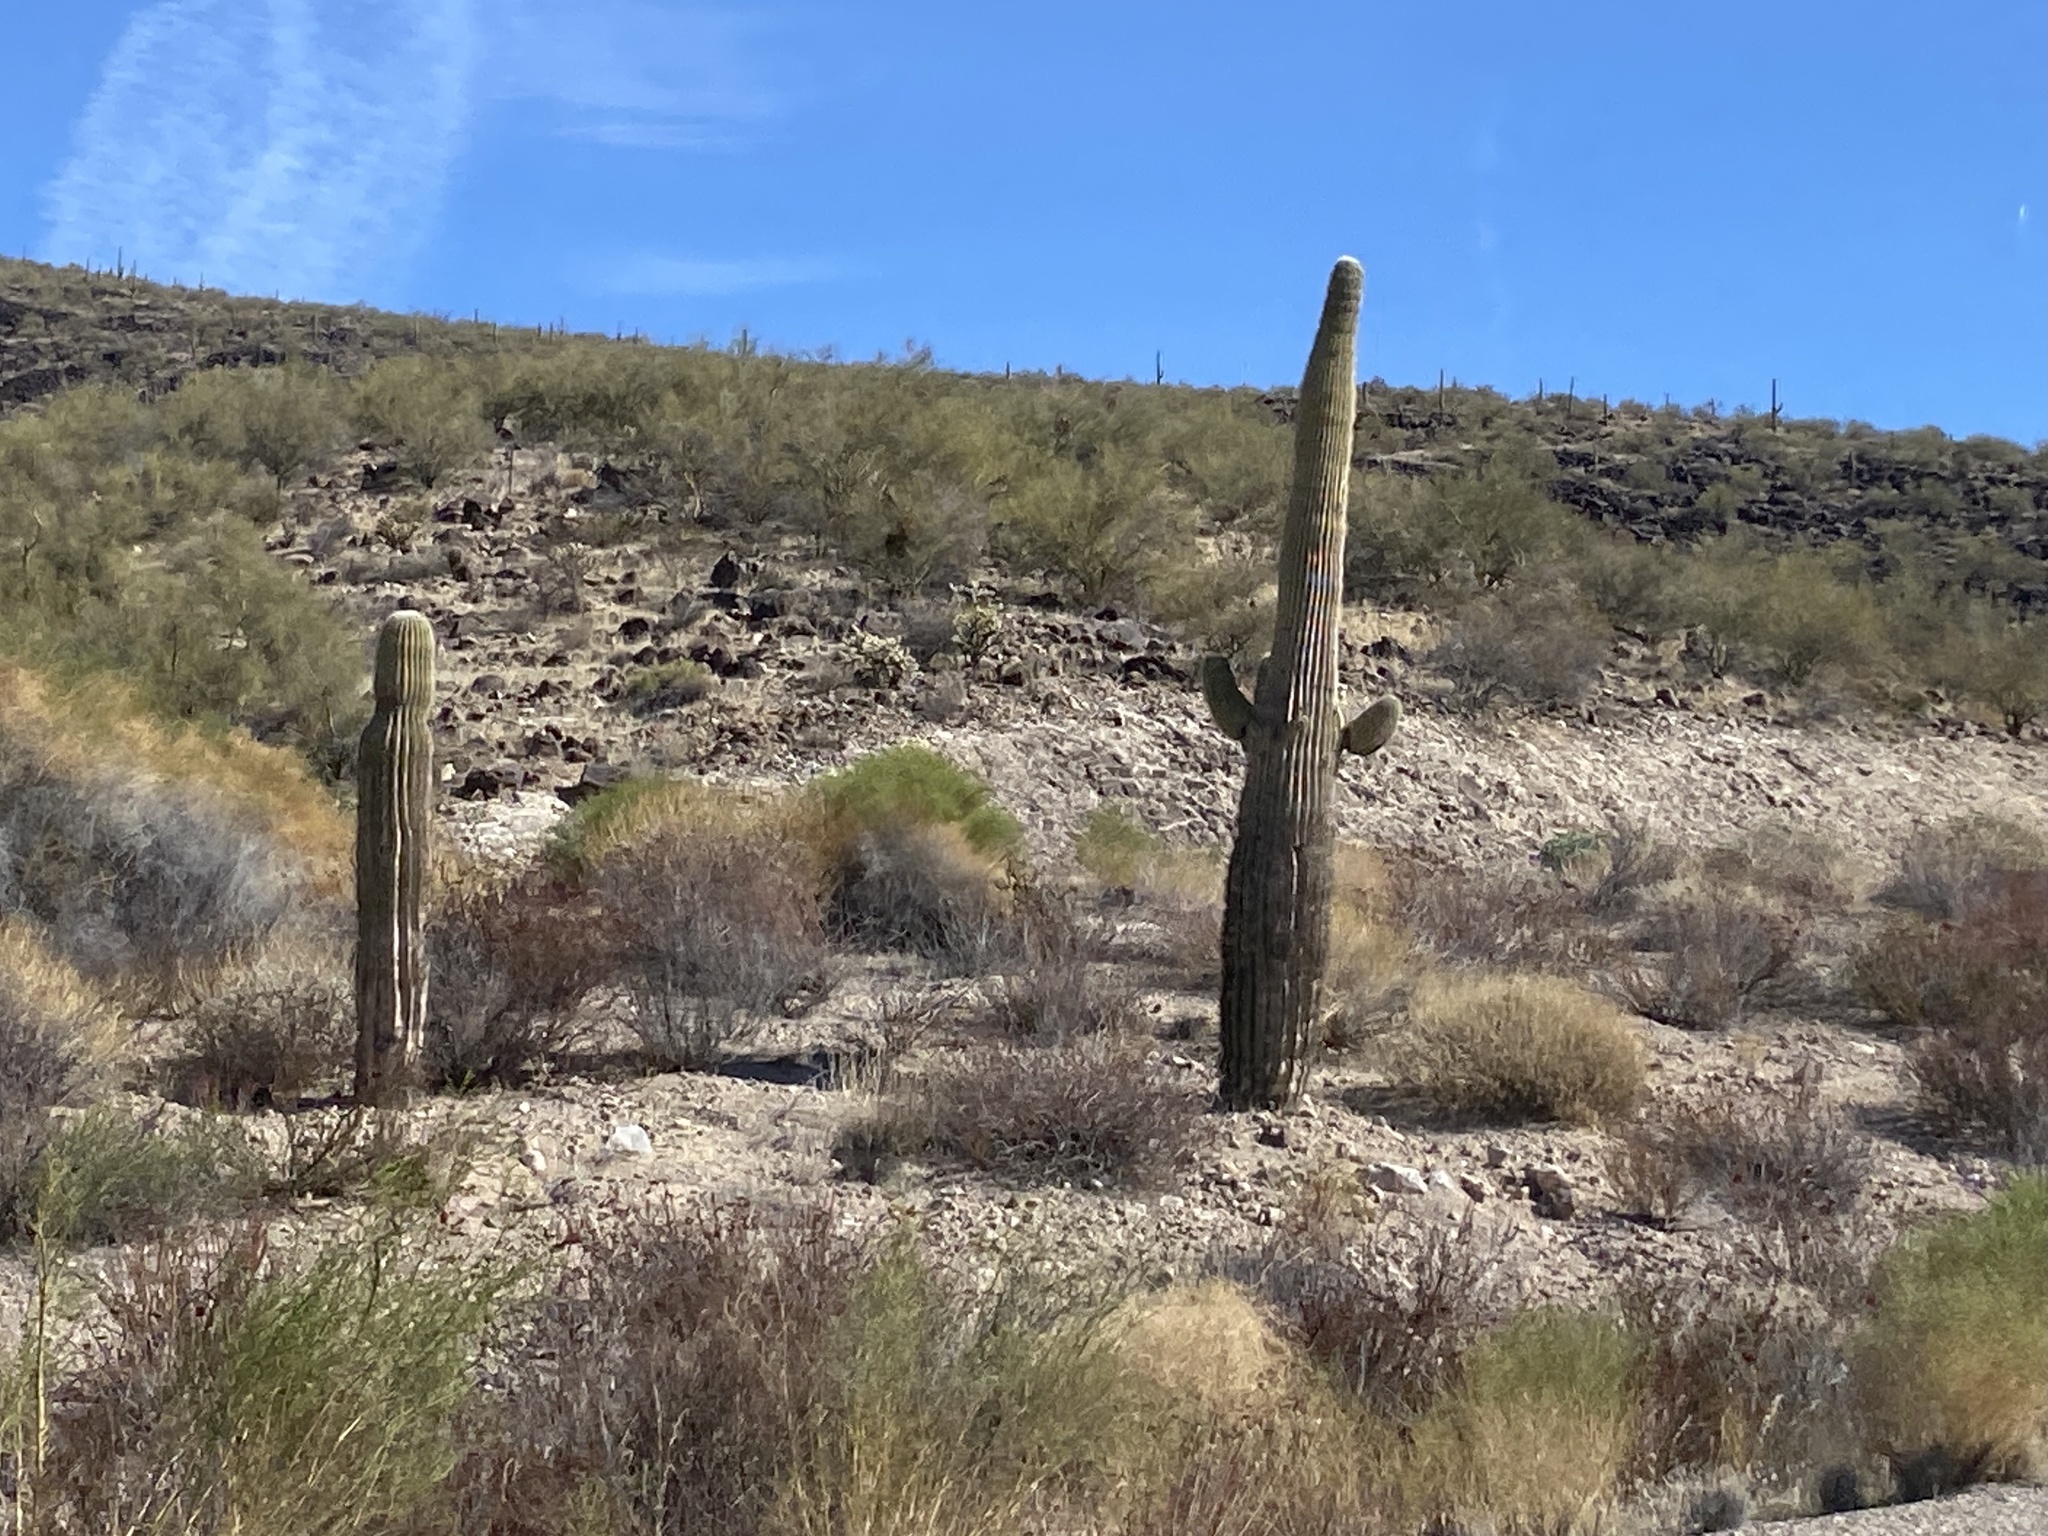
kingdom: Plantae
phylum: Tracheophyta
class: Magnoliopsida
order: Caryophyllales
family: Cactaceae
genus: Carnegiea
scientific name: Carnegiea gigantea
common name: Saguaro
